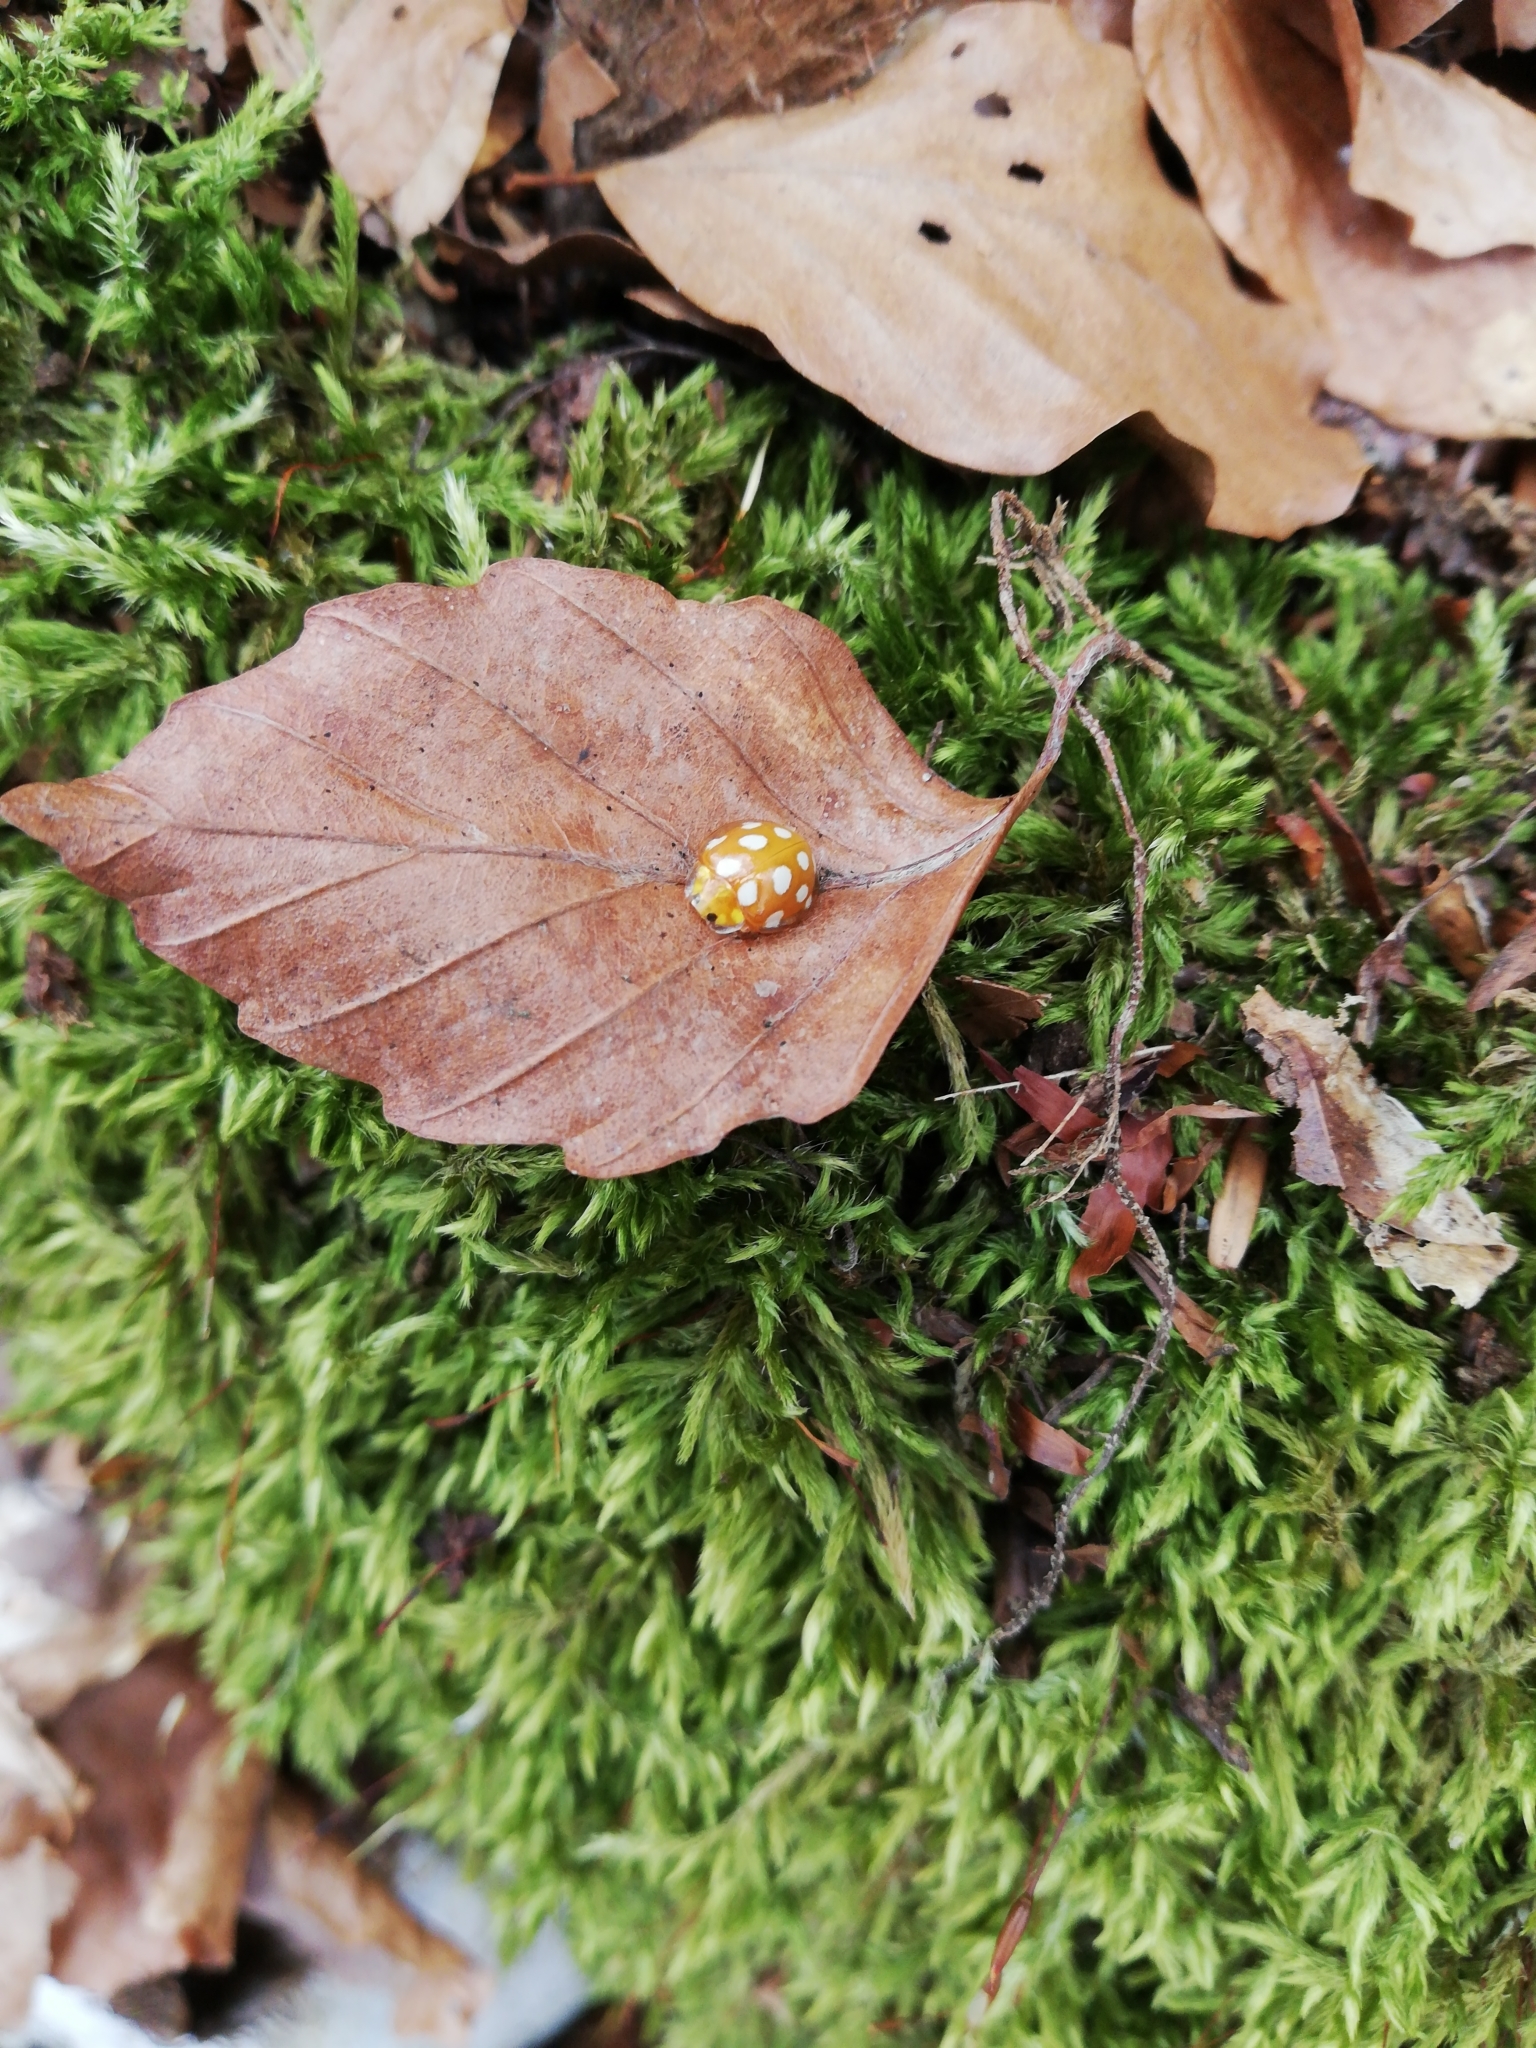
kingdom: Animalia
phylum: Arthropoda
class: Insecta
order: Coleoptera
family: Coccinellidae
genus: Halyzia
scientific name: Halyzia sedecimguttata
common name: Orange ladybird
